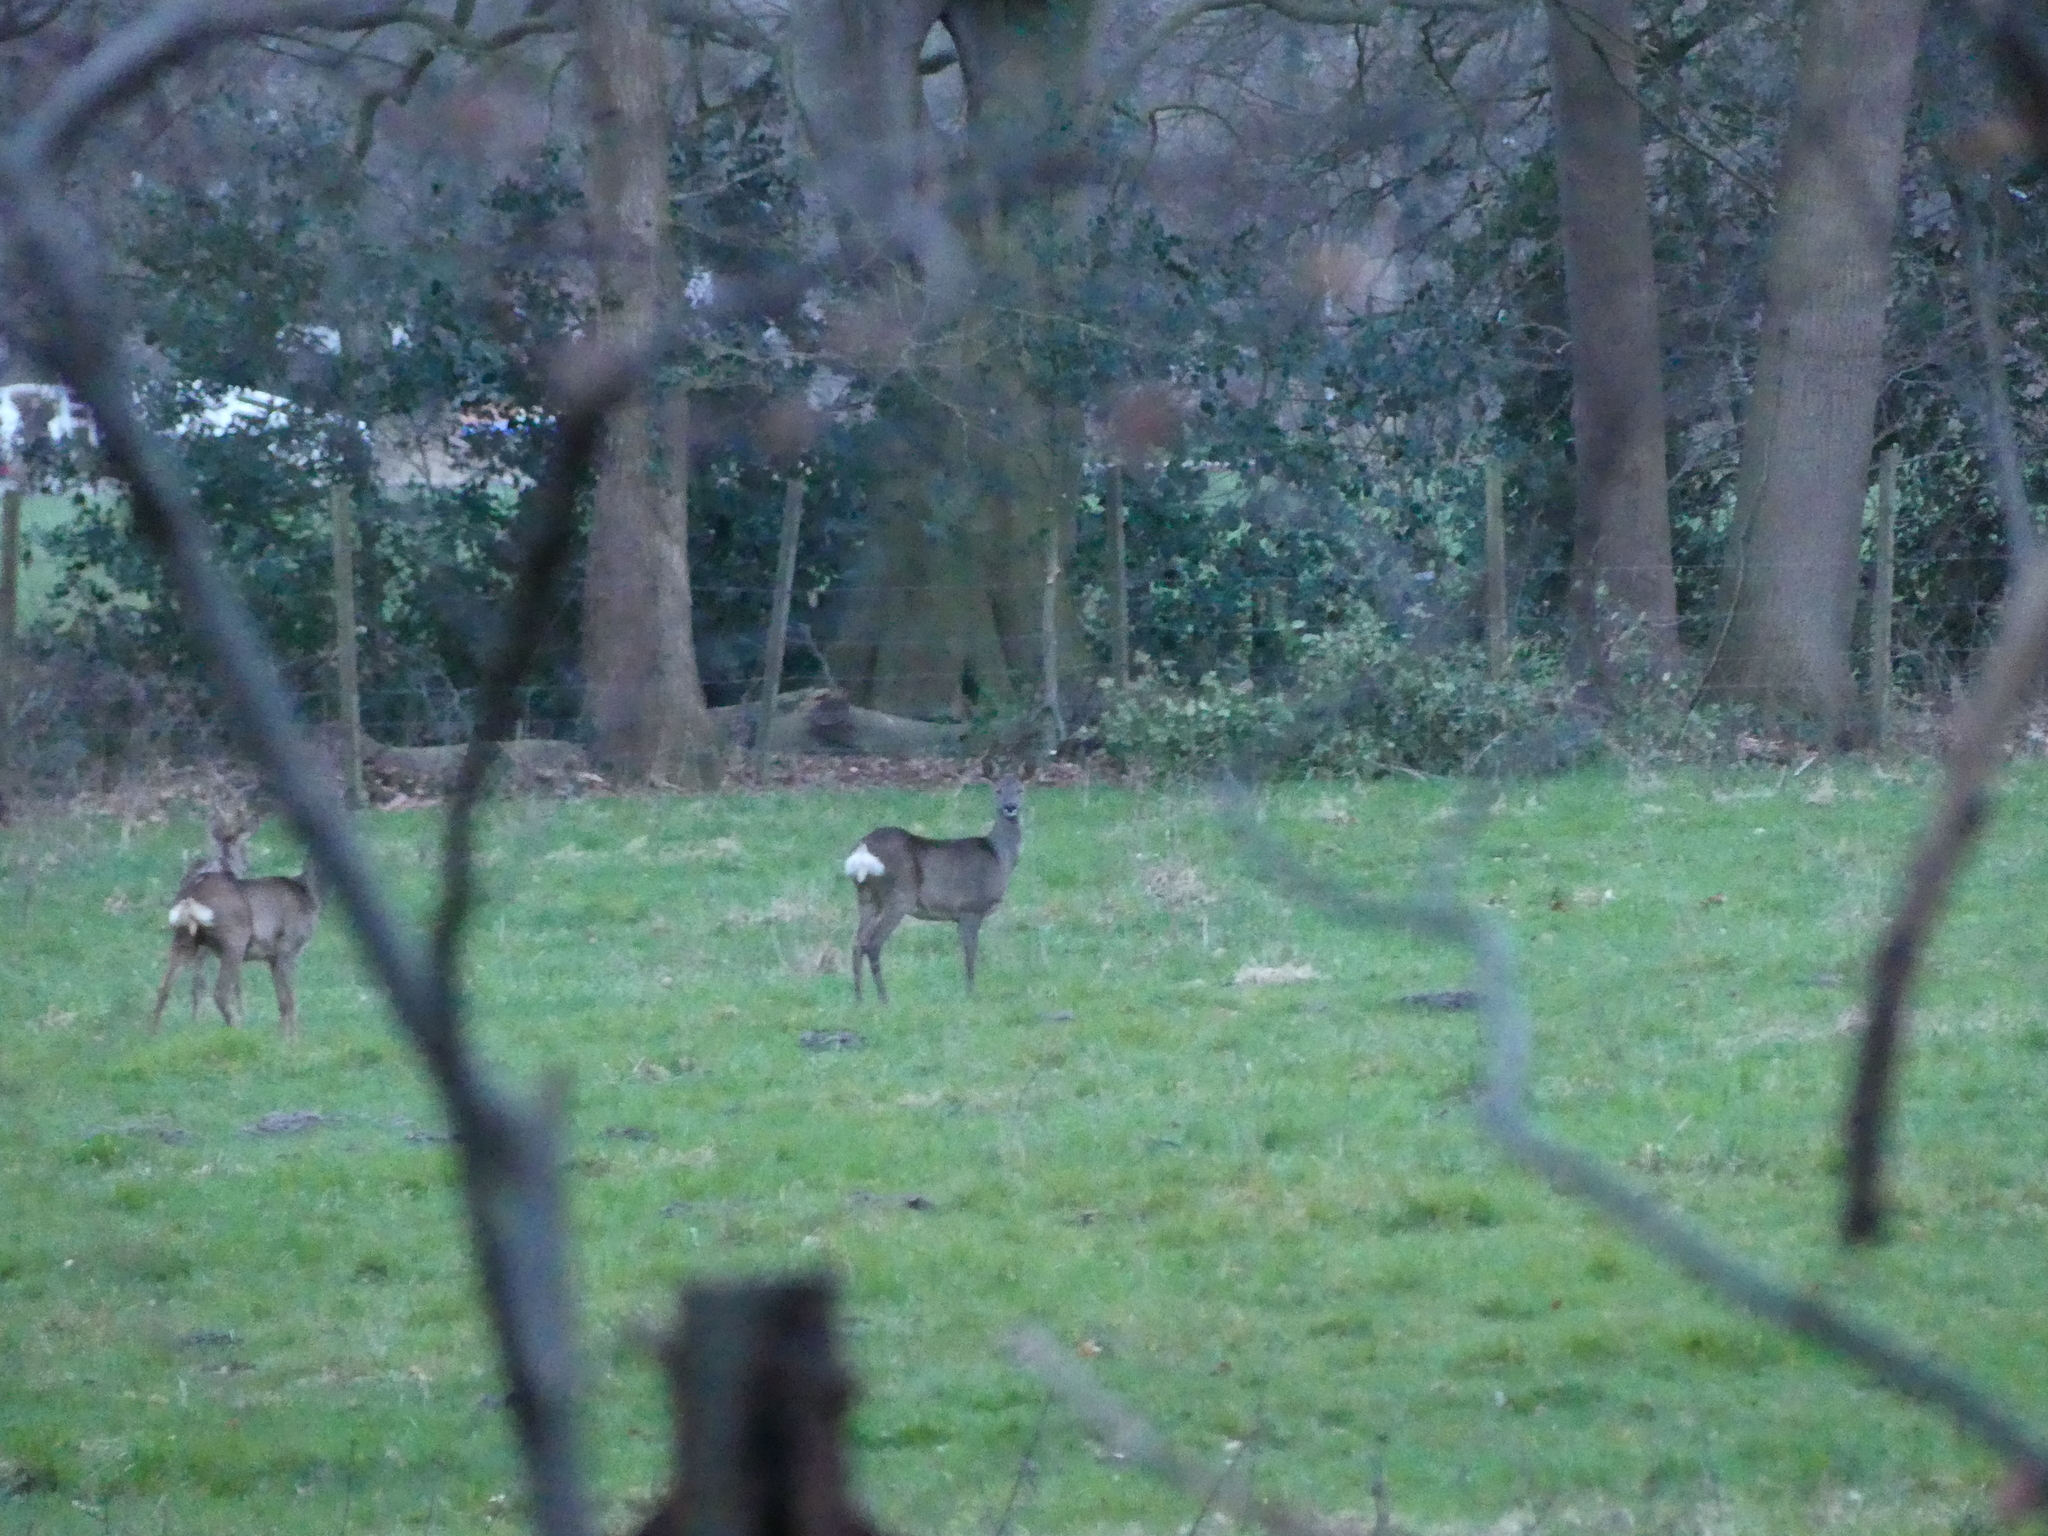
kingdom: Animalia
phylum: Chordata
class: Mammalia
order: Artiodactyla
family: Cervidae
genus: Capreolus
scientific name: Capreolus capreolus
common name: Western roe deer
